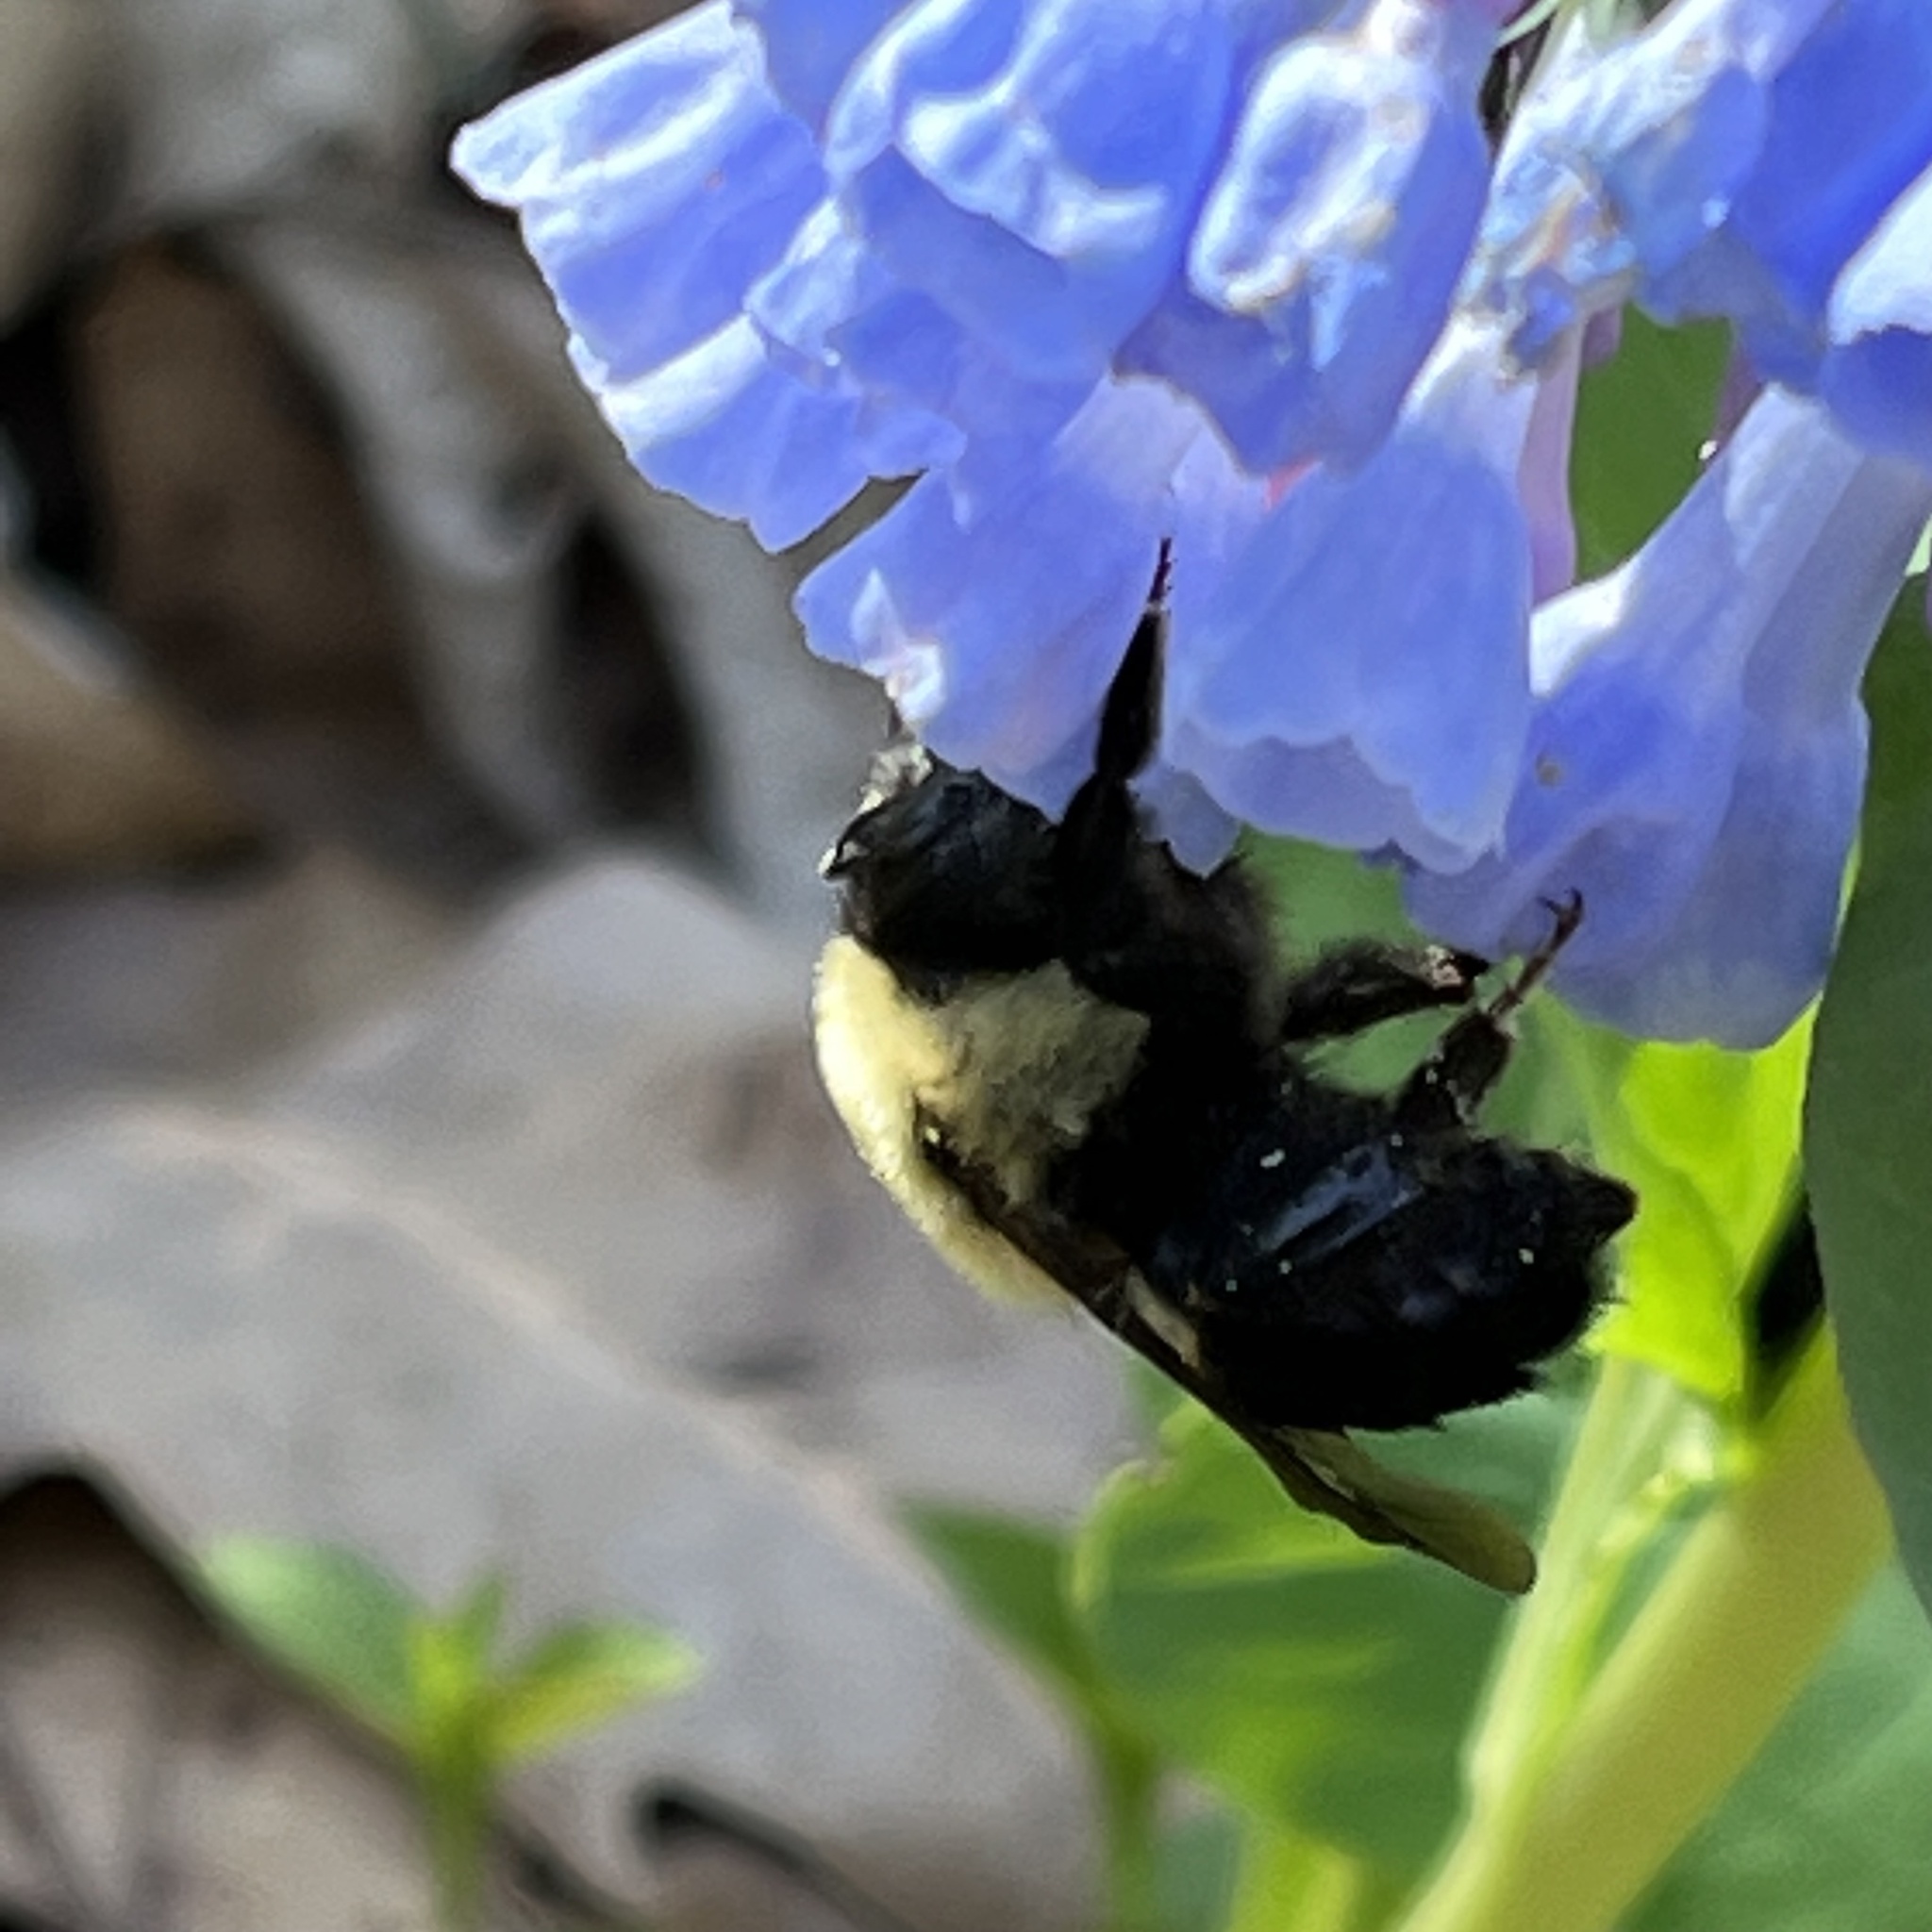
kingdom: Animalia
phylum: Arthropoda
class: Insecta
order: Hymenoptera
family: Apidae
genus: Bombus
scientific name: Bombus griseocollis
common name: Brown-belted bumble bee
